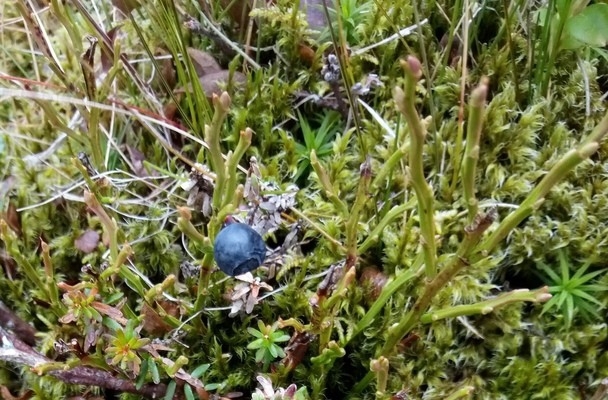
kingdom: Plantae
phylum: Tracheophyta
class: Magnoliopsida
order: Ericales
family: Ericaceae
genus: Vaccinium
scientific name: Vaccinium myrtillus
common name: Bilberry
